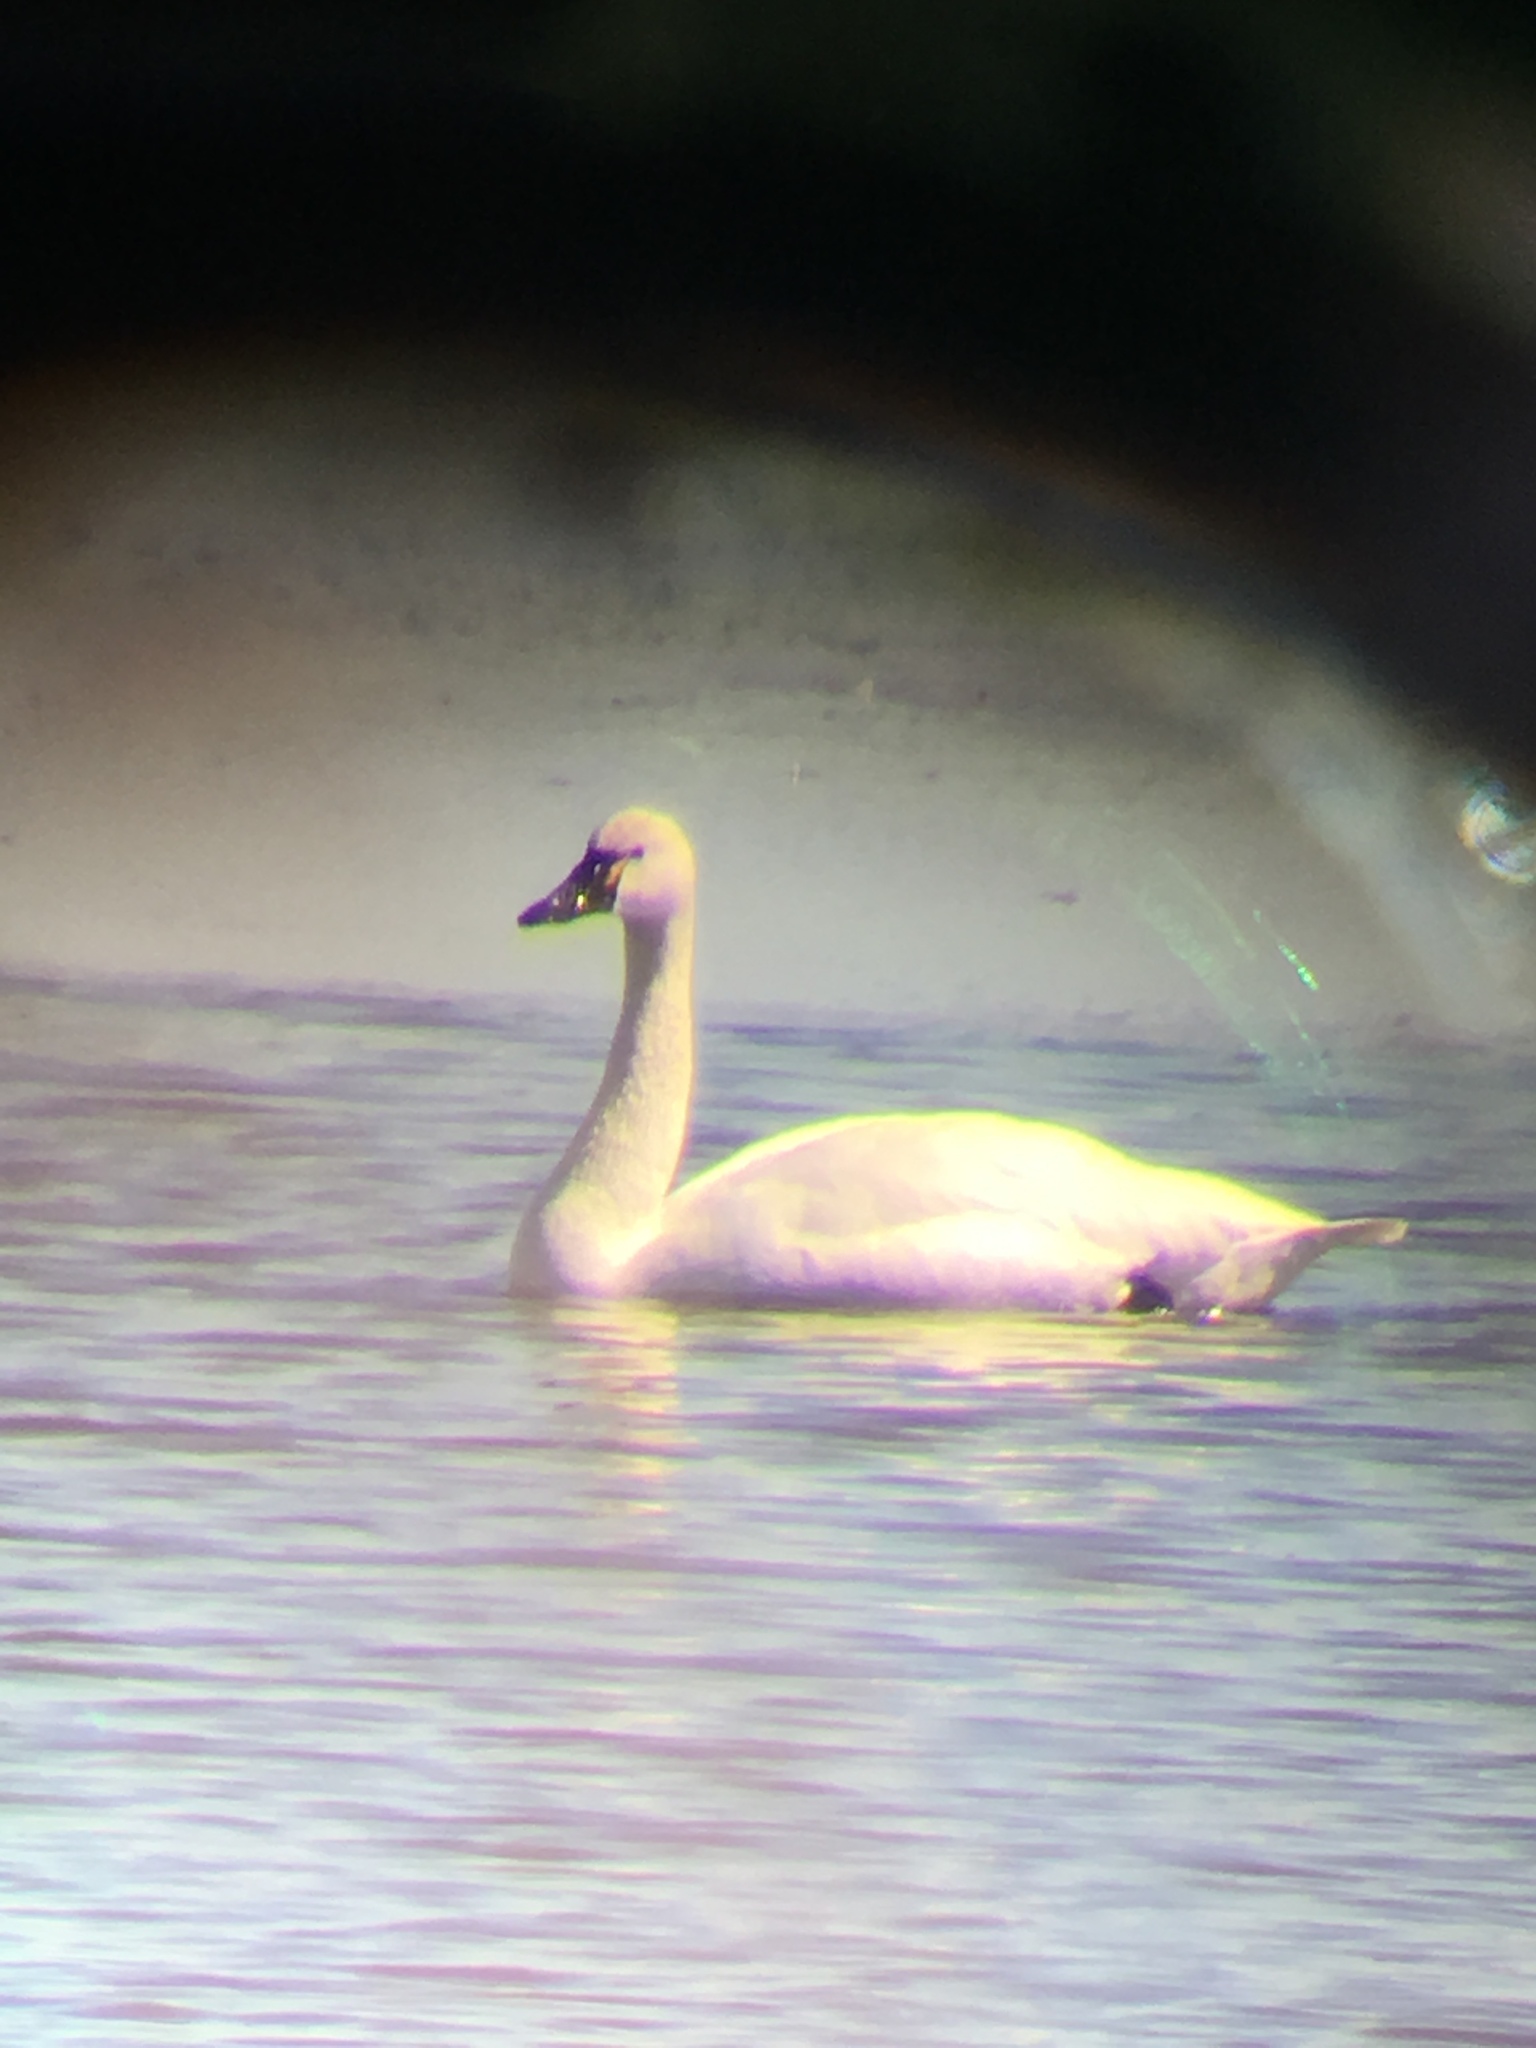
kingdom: Animalia
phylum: Chordata
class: Aves
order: Anseriformes
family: Anatidae
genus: Cygnus
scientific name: Cygnus columbianus
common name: Tundra swan
